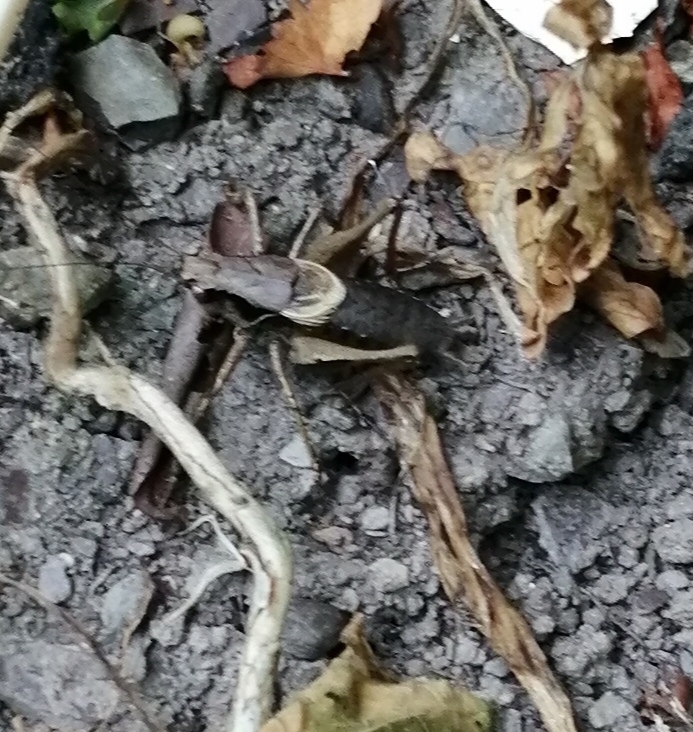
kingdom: Animalia
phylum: Arthropoda
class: Insecta
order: Orthoptera
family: Tettigoniidae
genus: Pholidoptera
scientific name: Pholidoptera griseoaptera
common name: Dark bush-cricket
